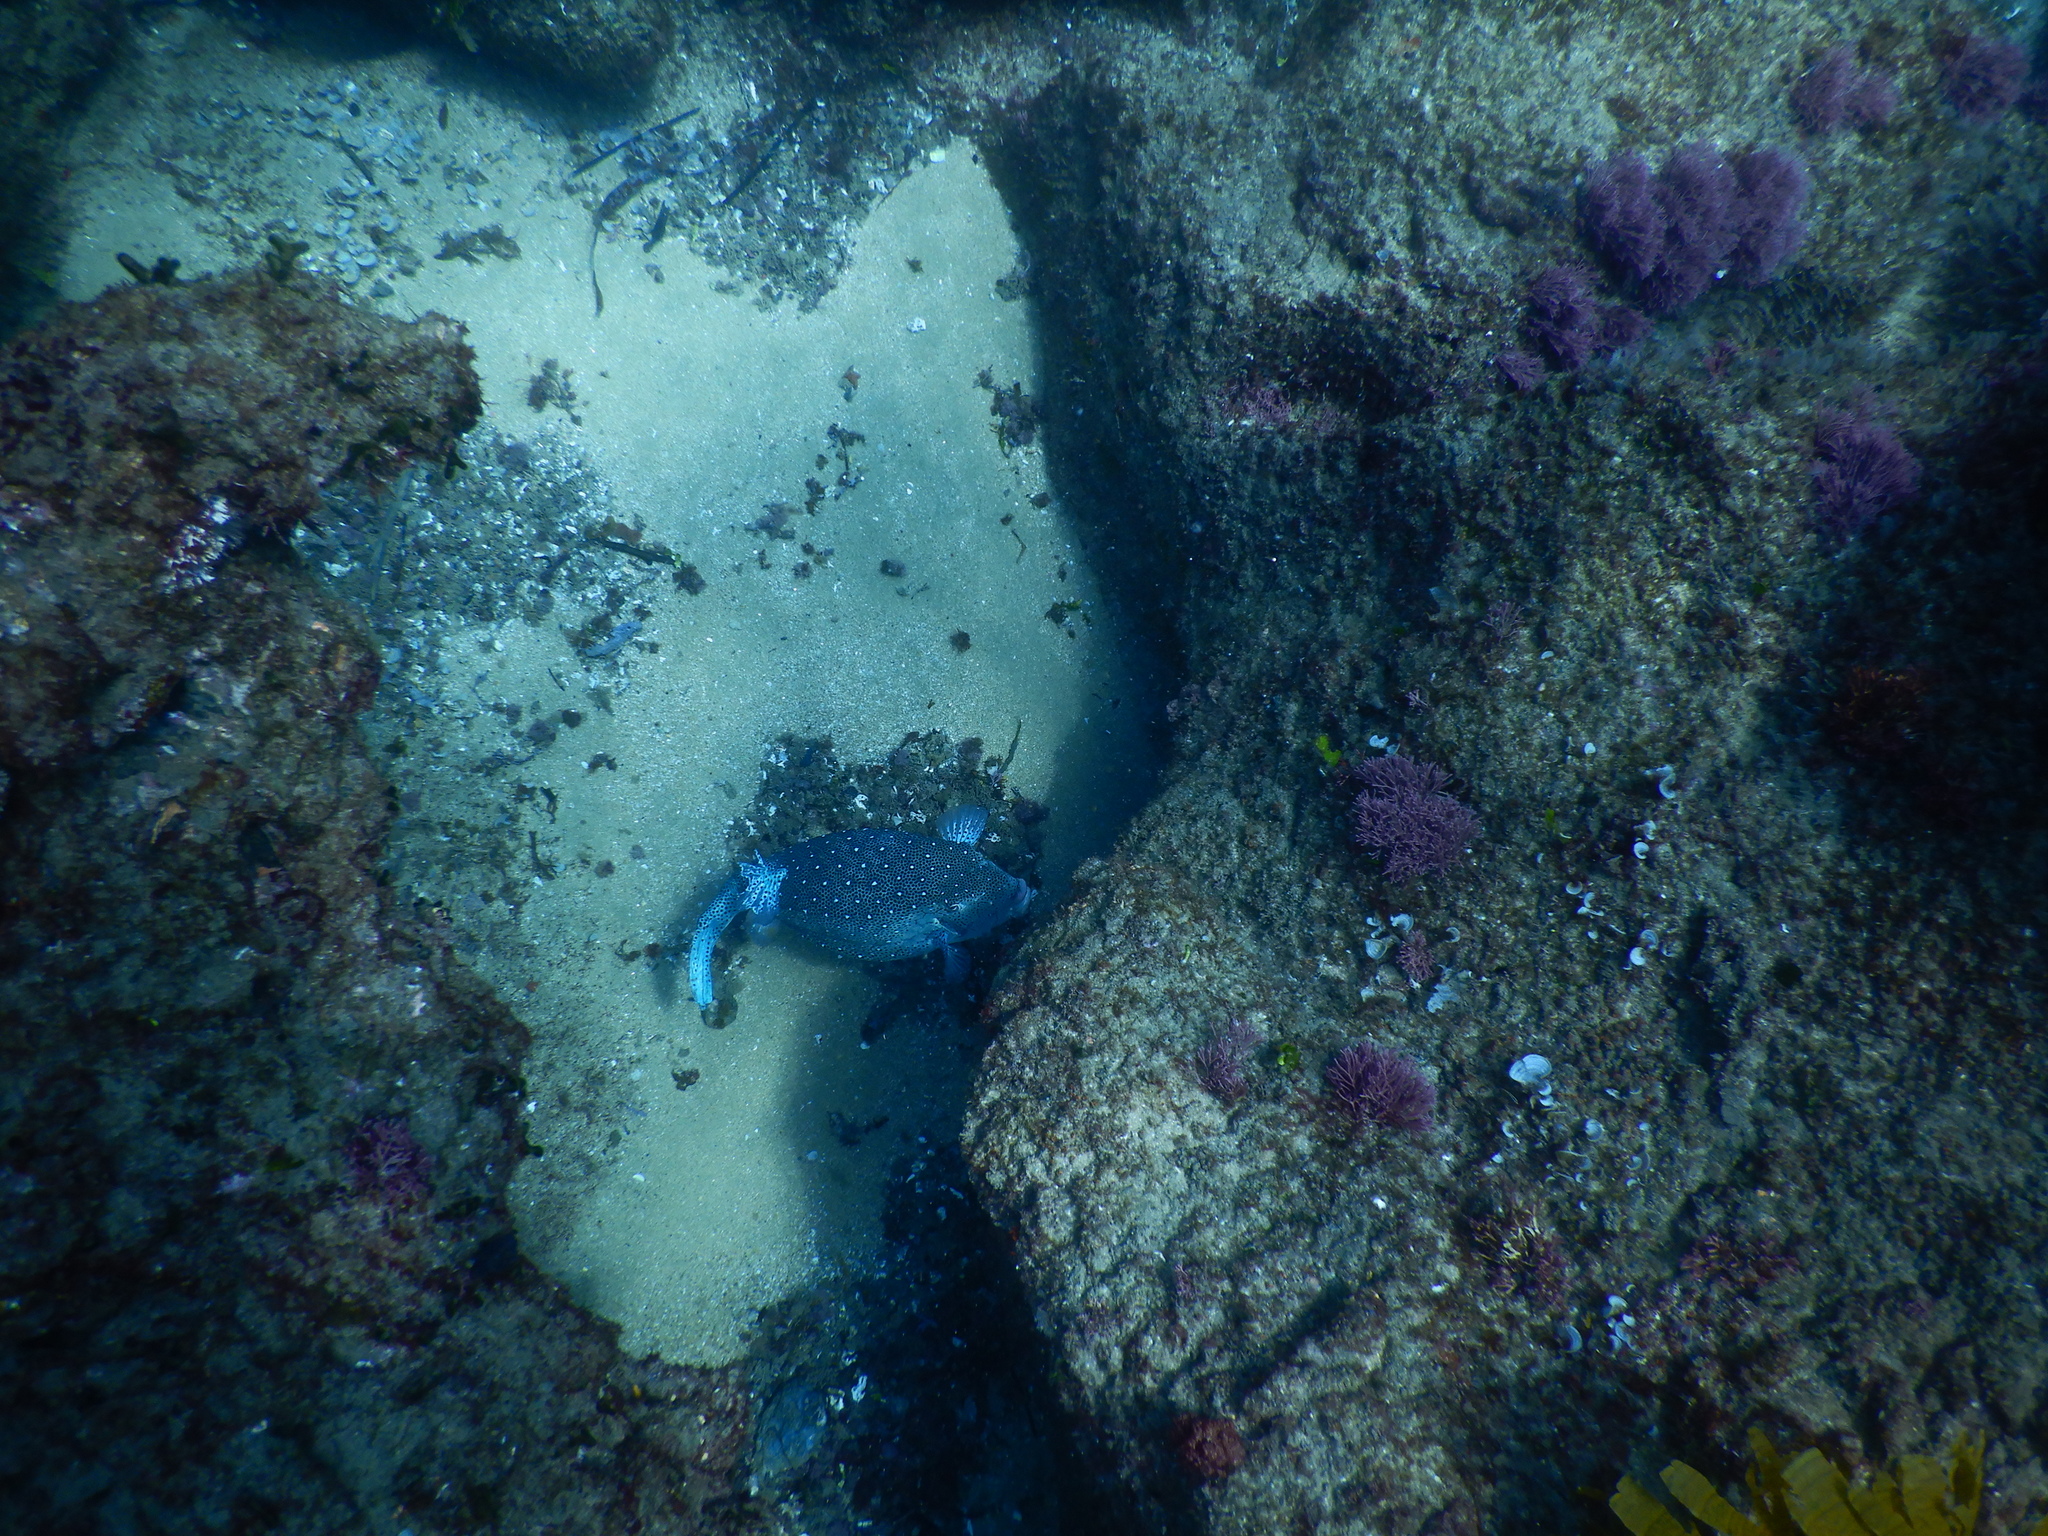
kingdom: Animalia
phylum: Chordata
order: Tetraodontiformes
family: Ostraciidae
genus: Ostracion
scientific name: Ostracion cubicus
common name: Cube trunkfish
